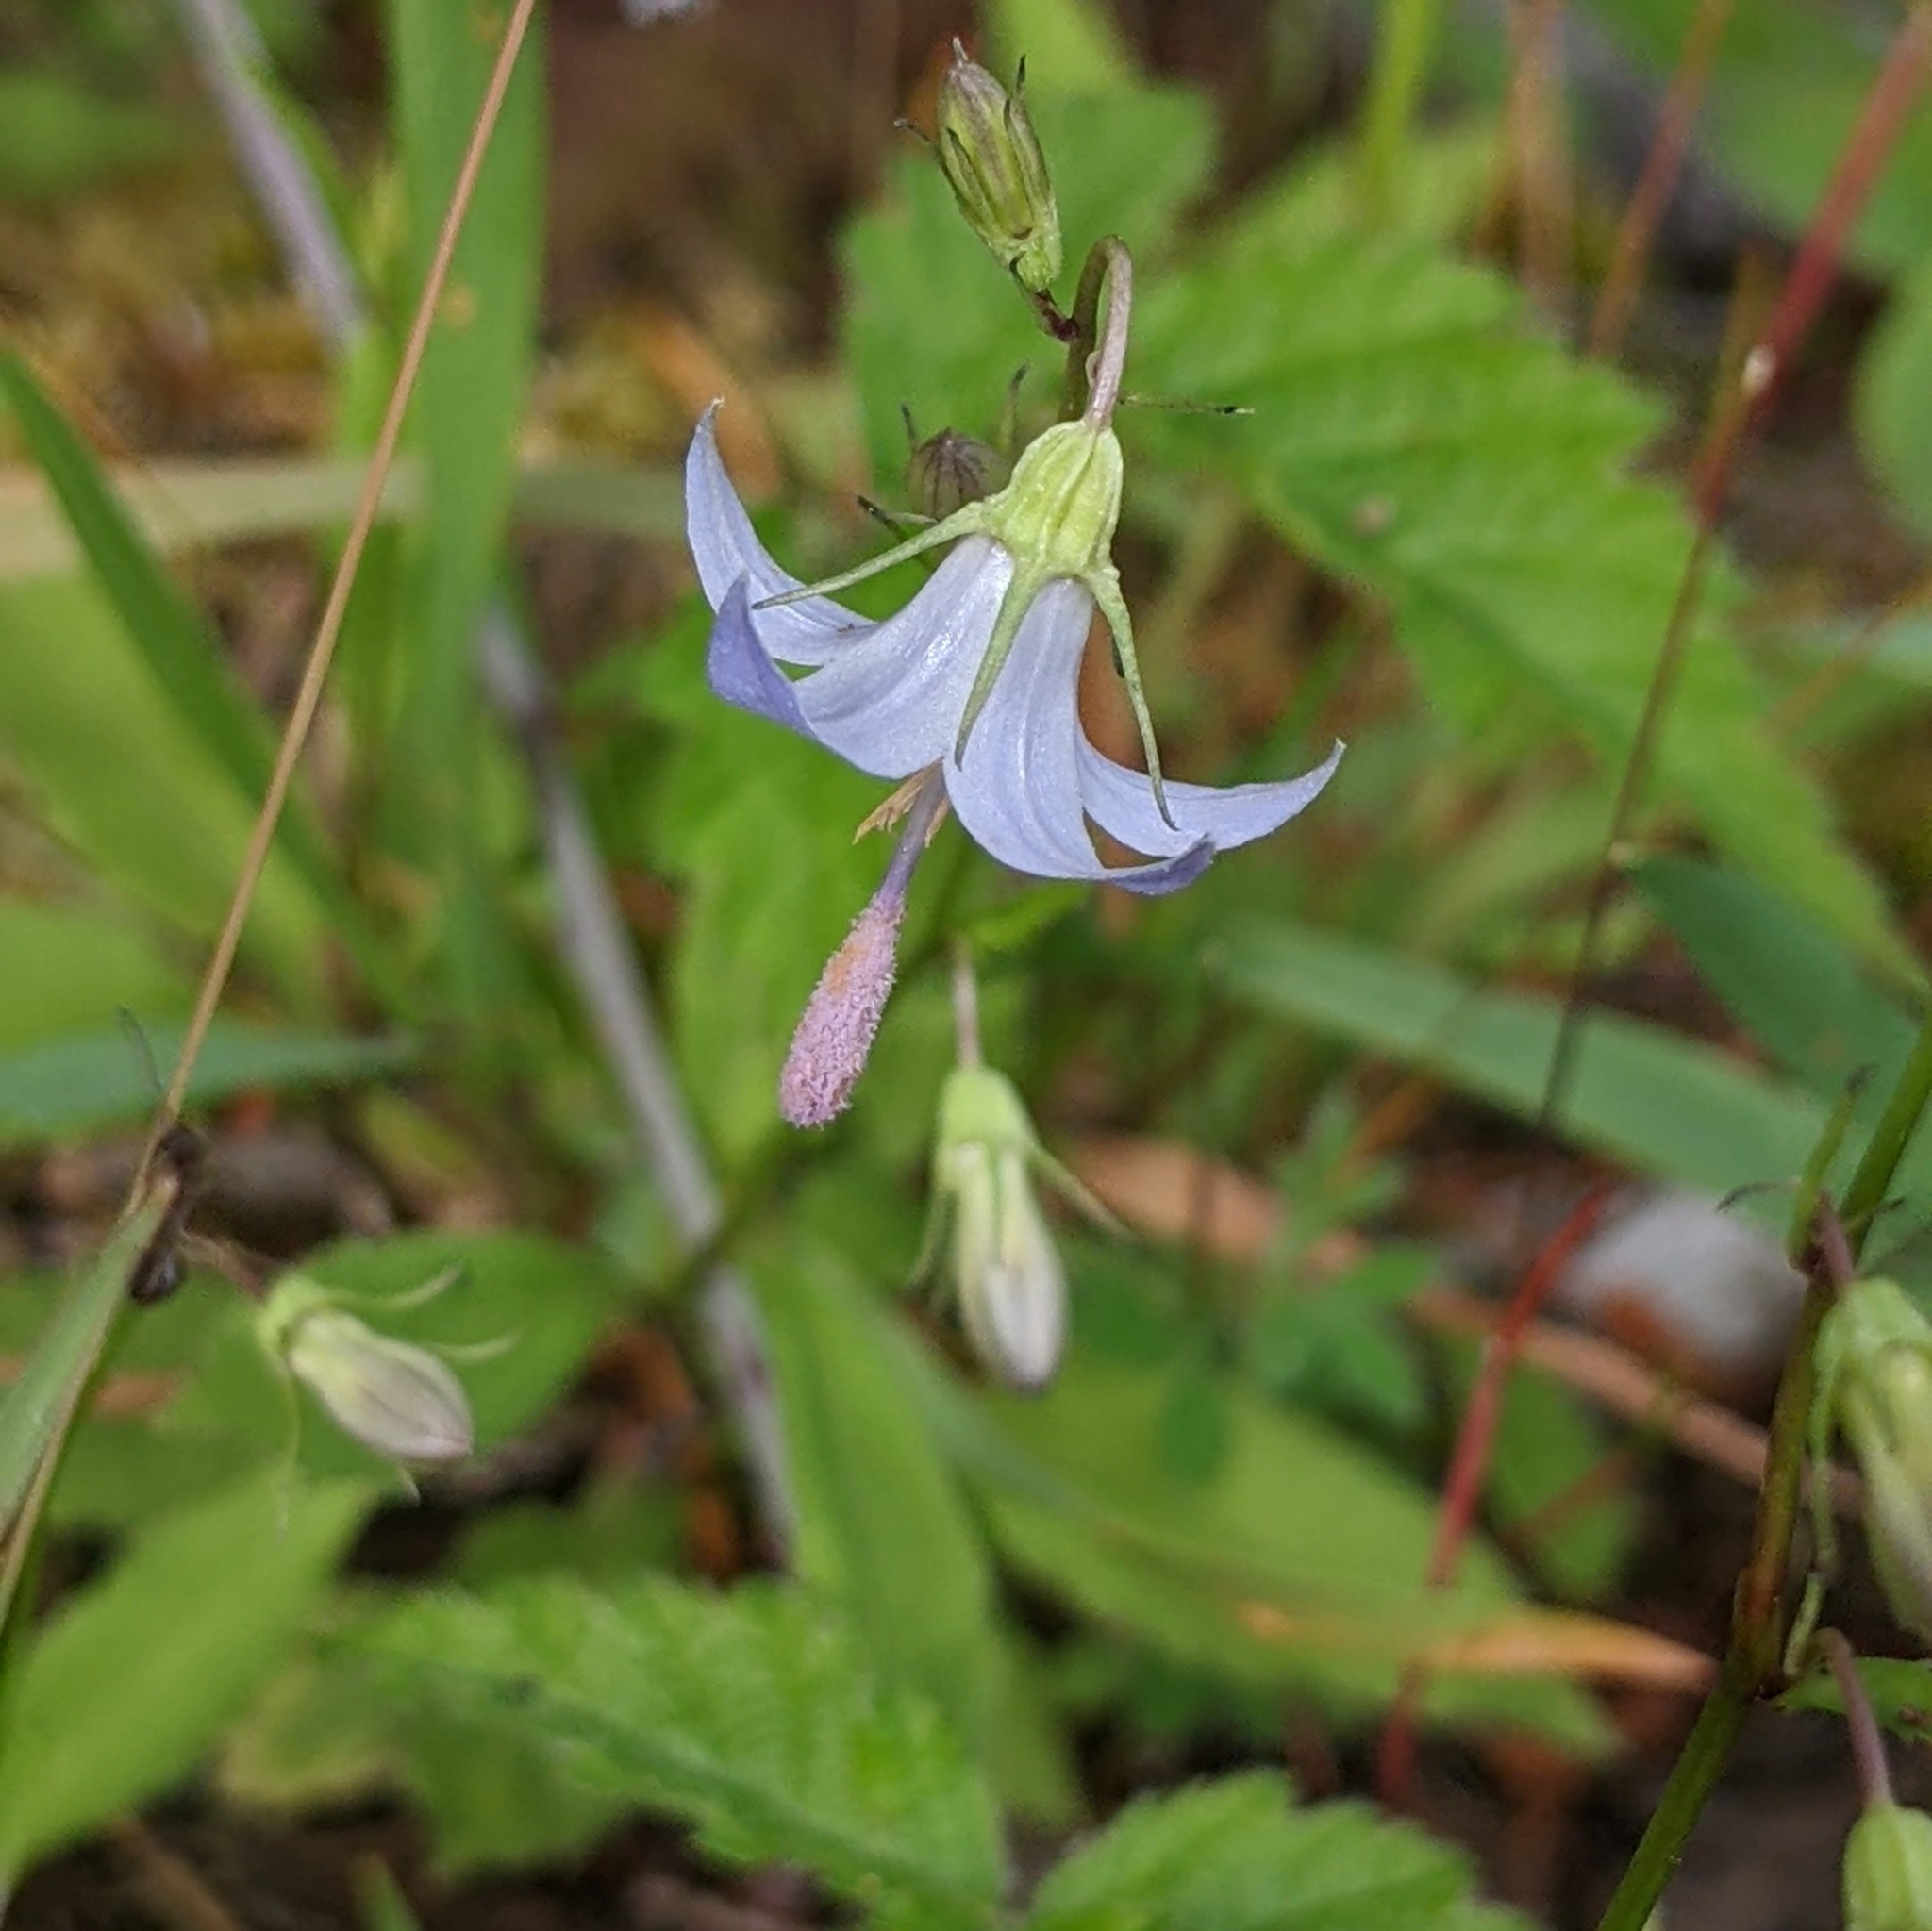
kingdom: Plantae
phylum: Tracheophyta
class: Magnoliopsida
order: Asterales
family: Campanulaceae
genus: Campanula
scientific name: Campanula scouleri
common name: Scouler's harebell
